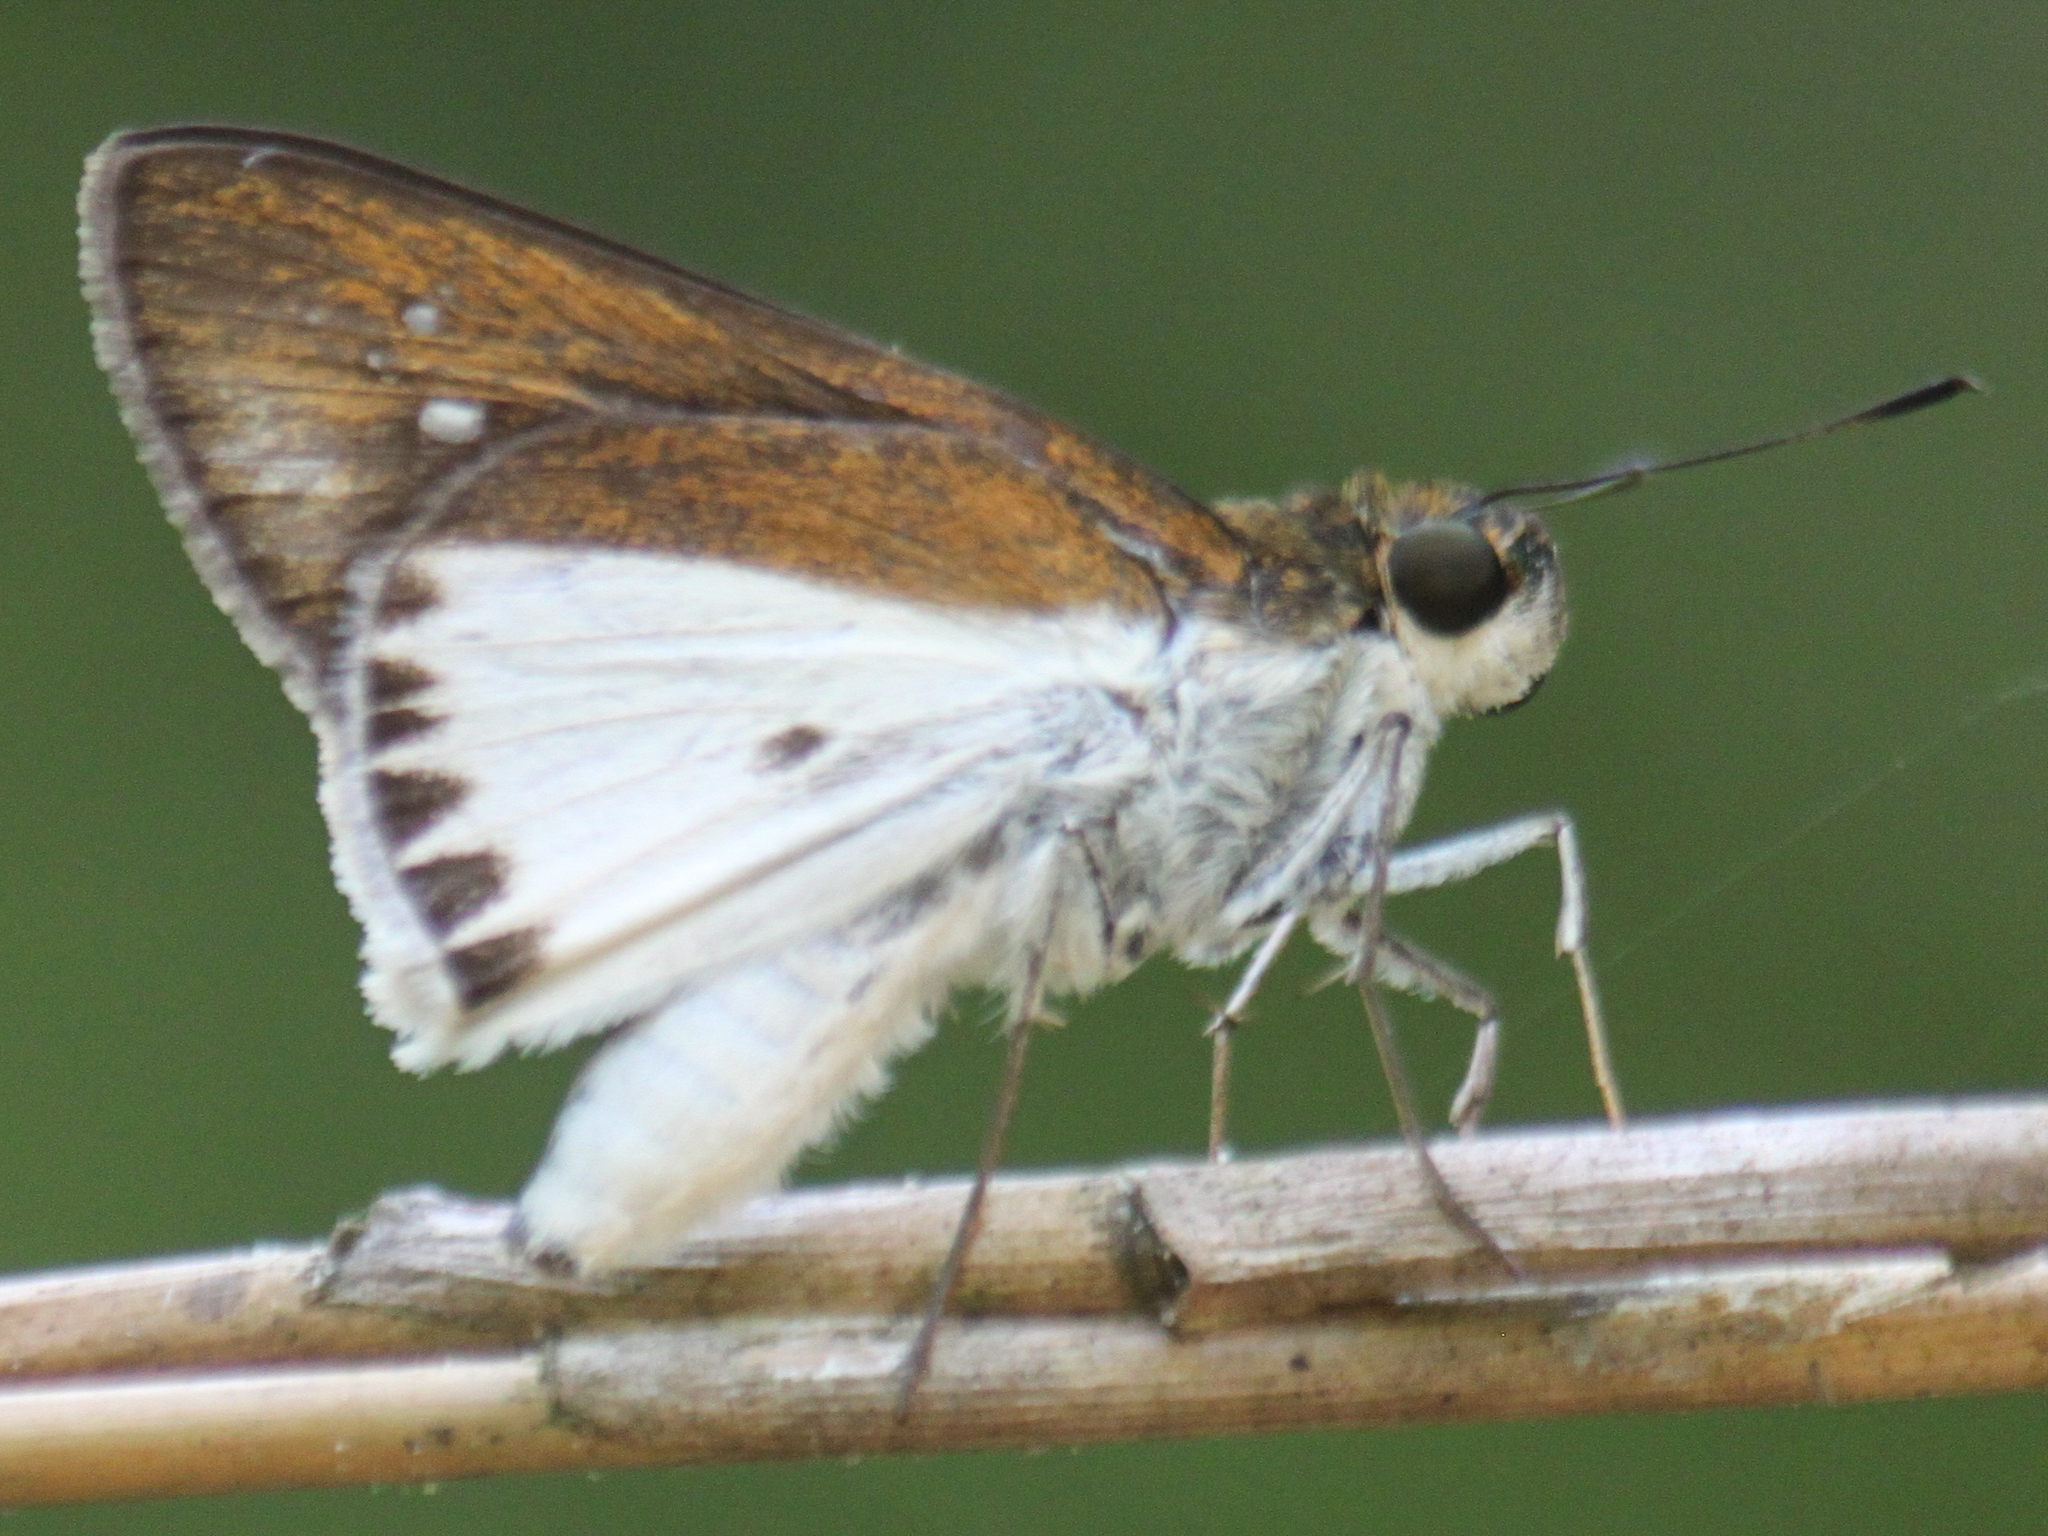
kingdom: Animalia
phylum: Arthropoda
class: Insecta
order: Lepidoptera
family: Hesperiidae
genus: Iton
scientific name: Iton semamora
